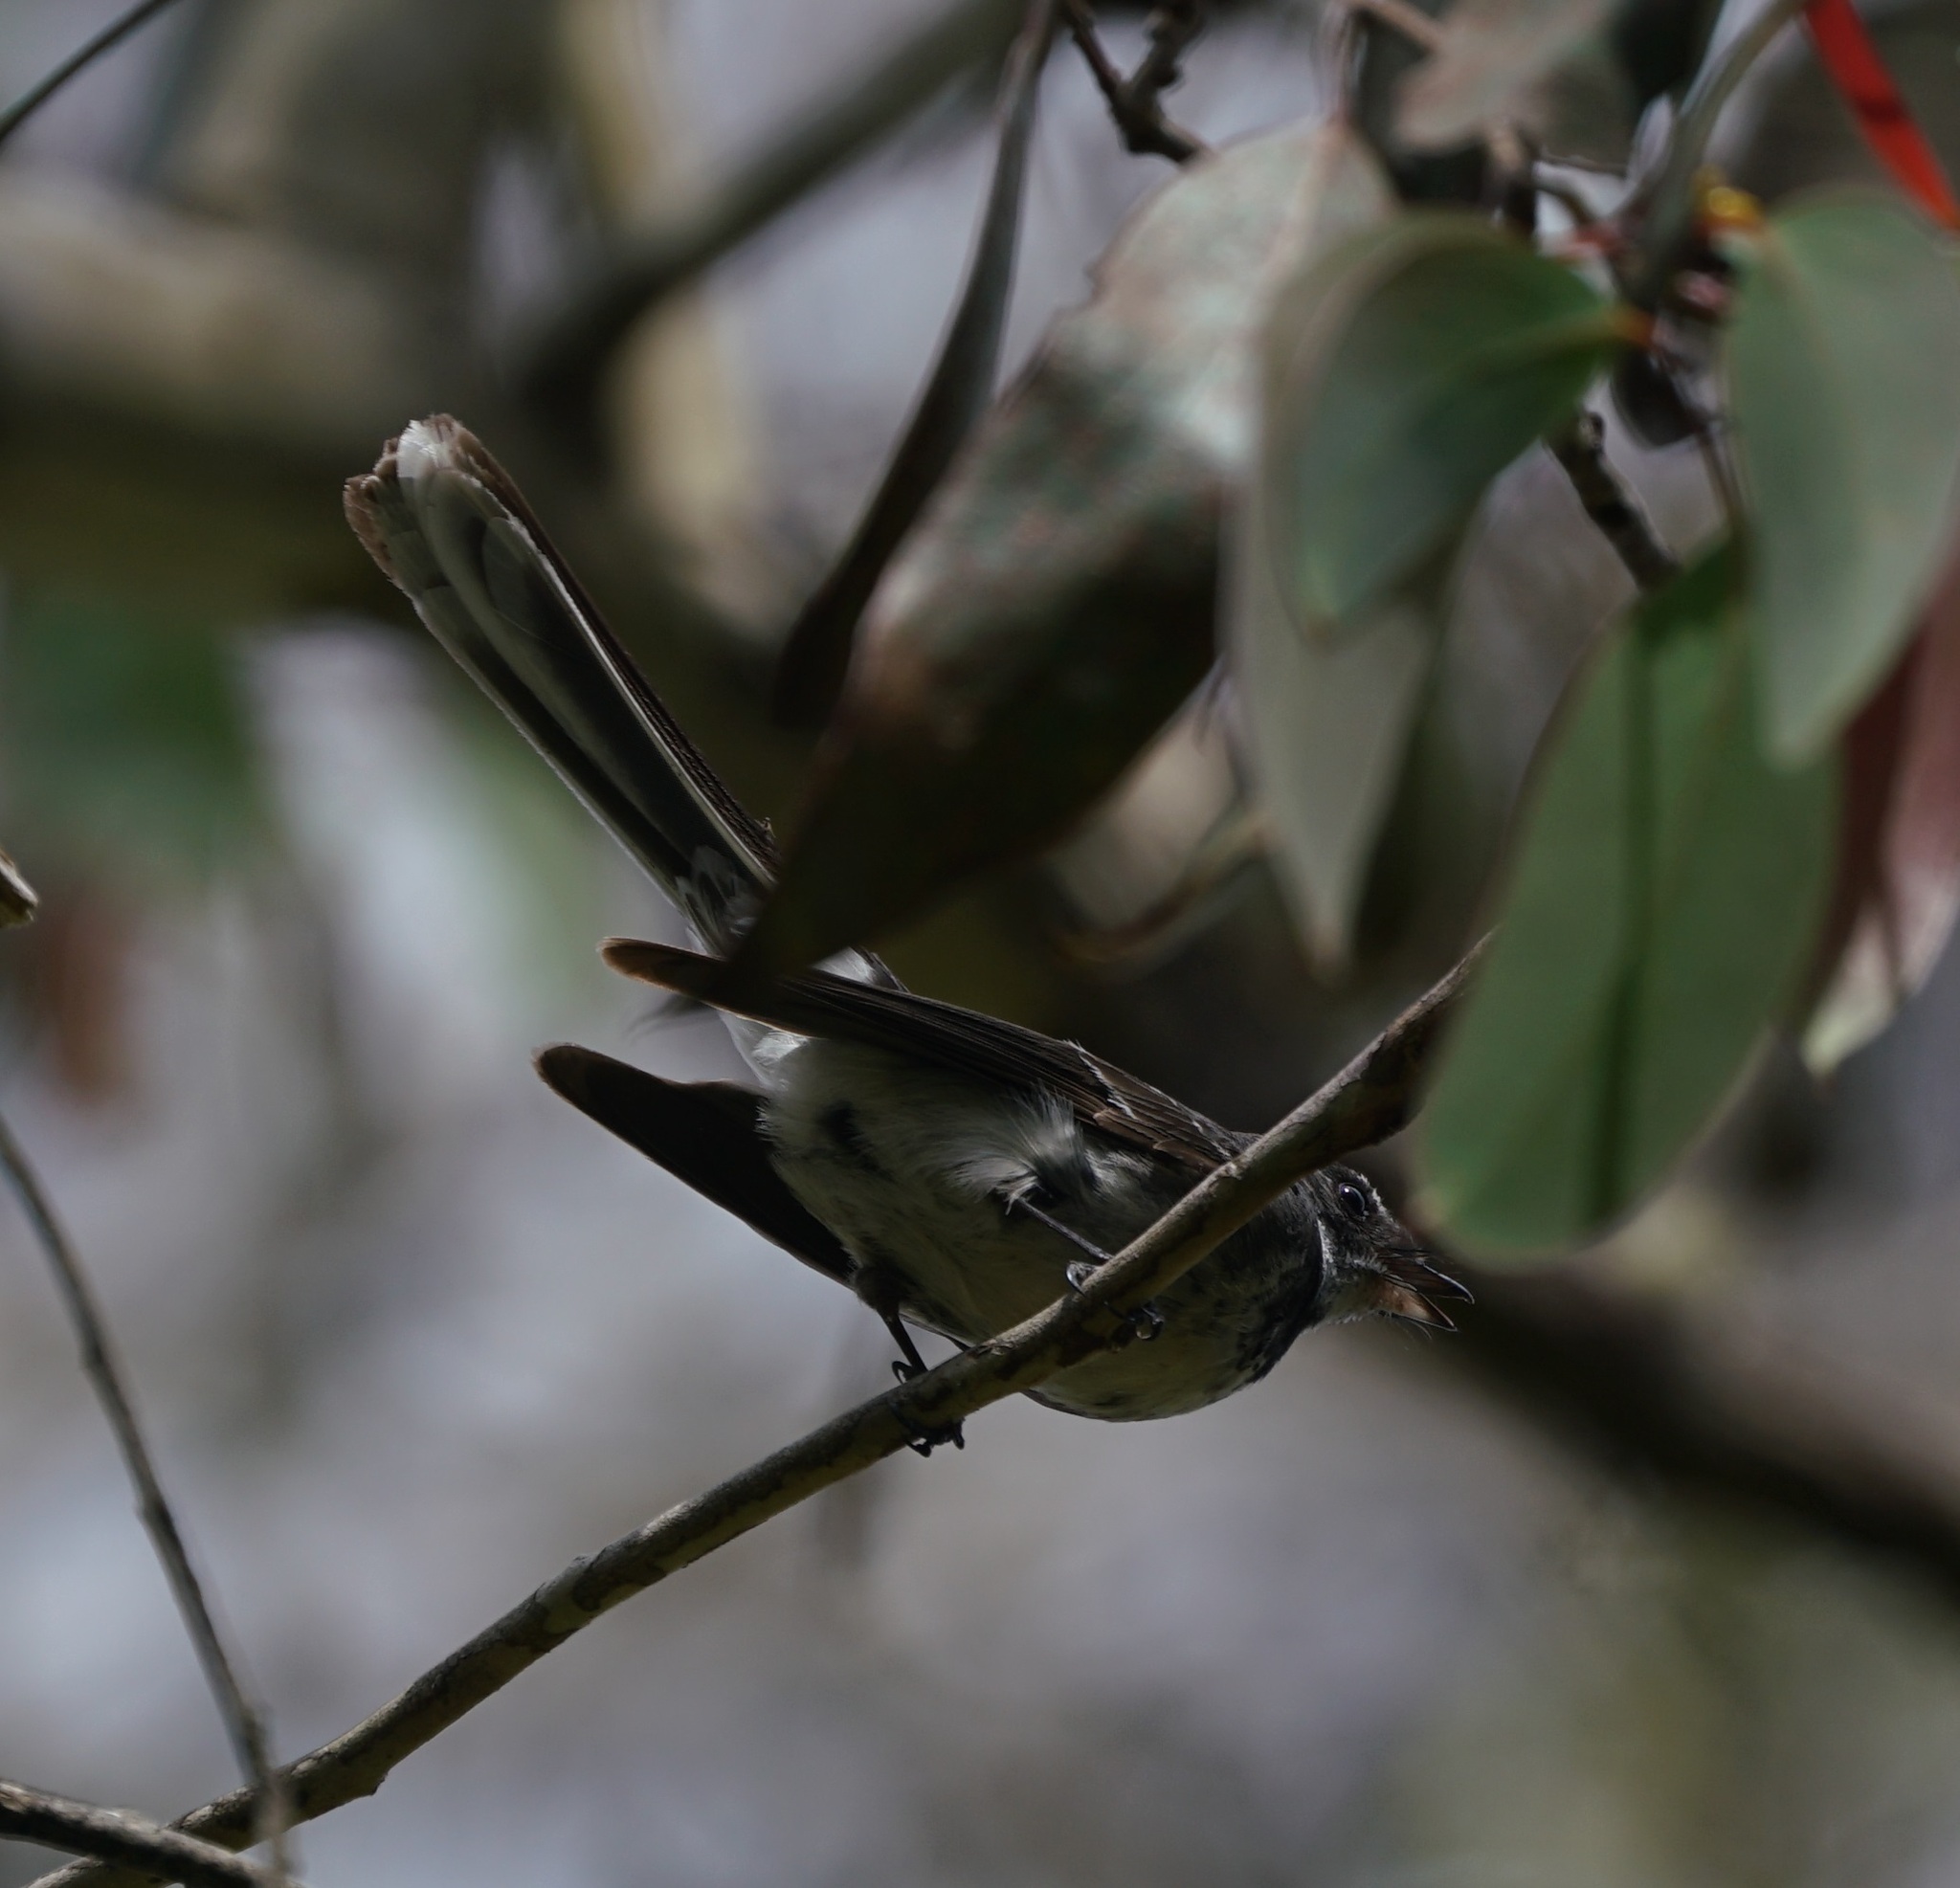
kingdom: Animalia
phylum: Chordata
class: Aves
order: Passeriformes
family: Rhipiduridae
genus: Rhipidura
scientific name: Rhipidura albiscapa
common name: Grey fantail
